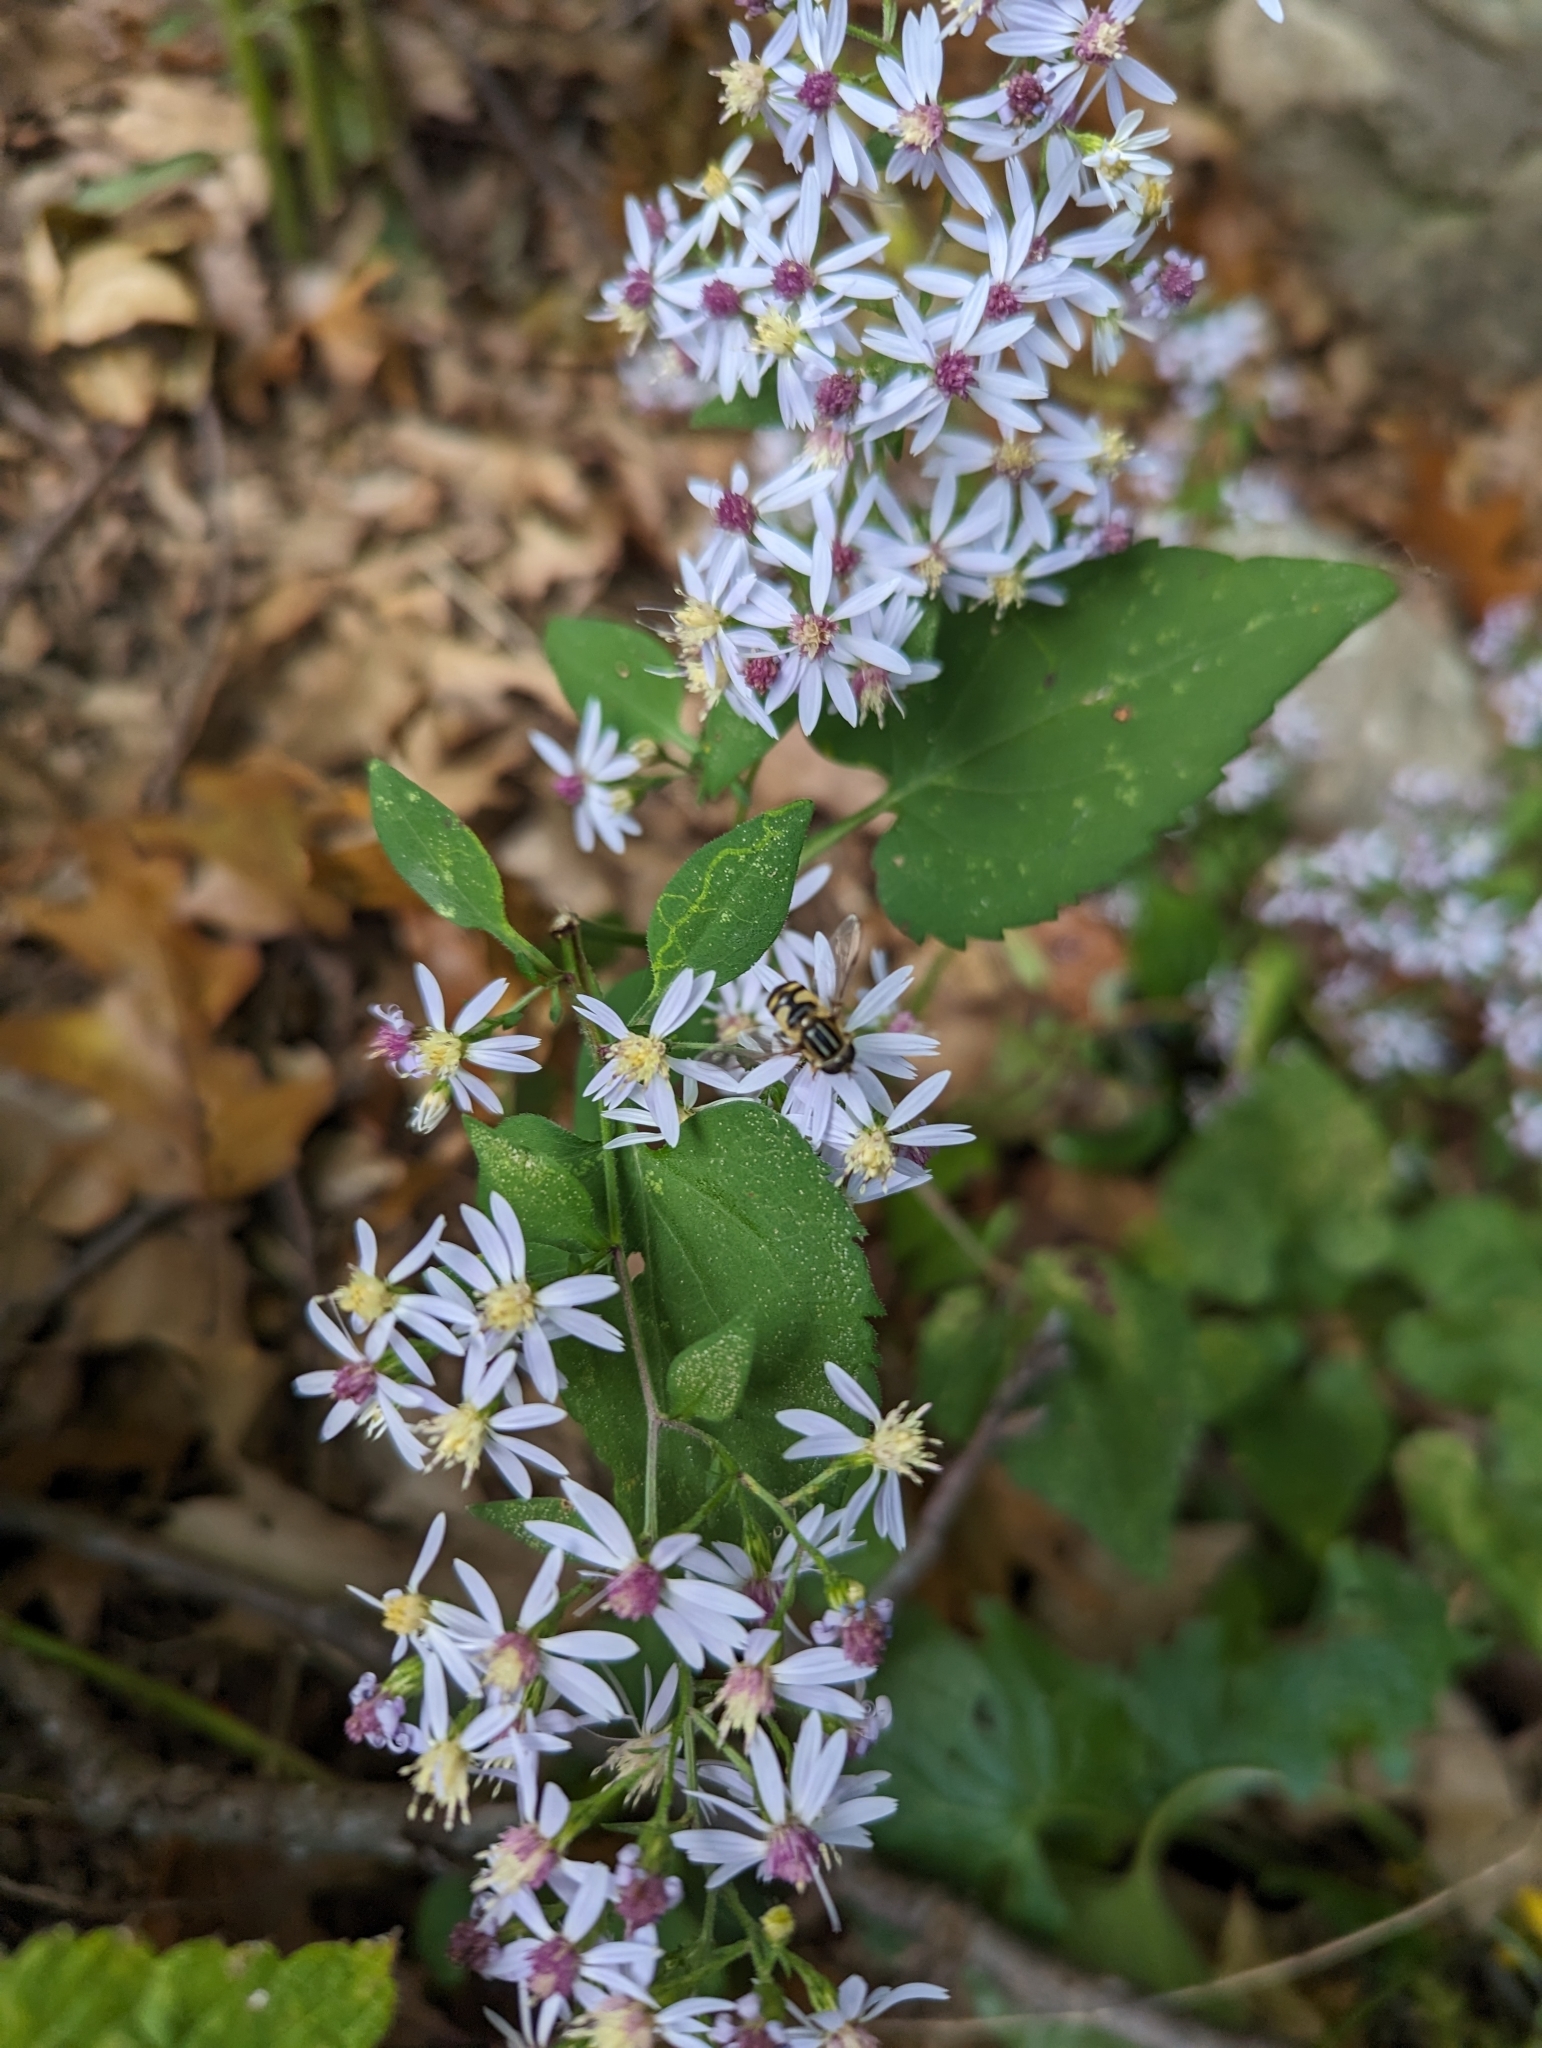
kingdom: Animalia
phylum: Arthropoda
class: Insecta
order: Diptera
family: Syrphidae
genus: Helophilus
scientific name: Helophilus fasciatus
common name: Narrow-headed marsh fly
